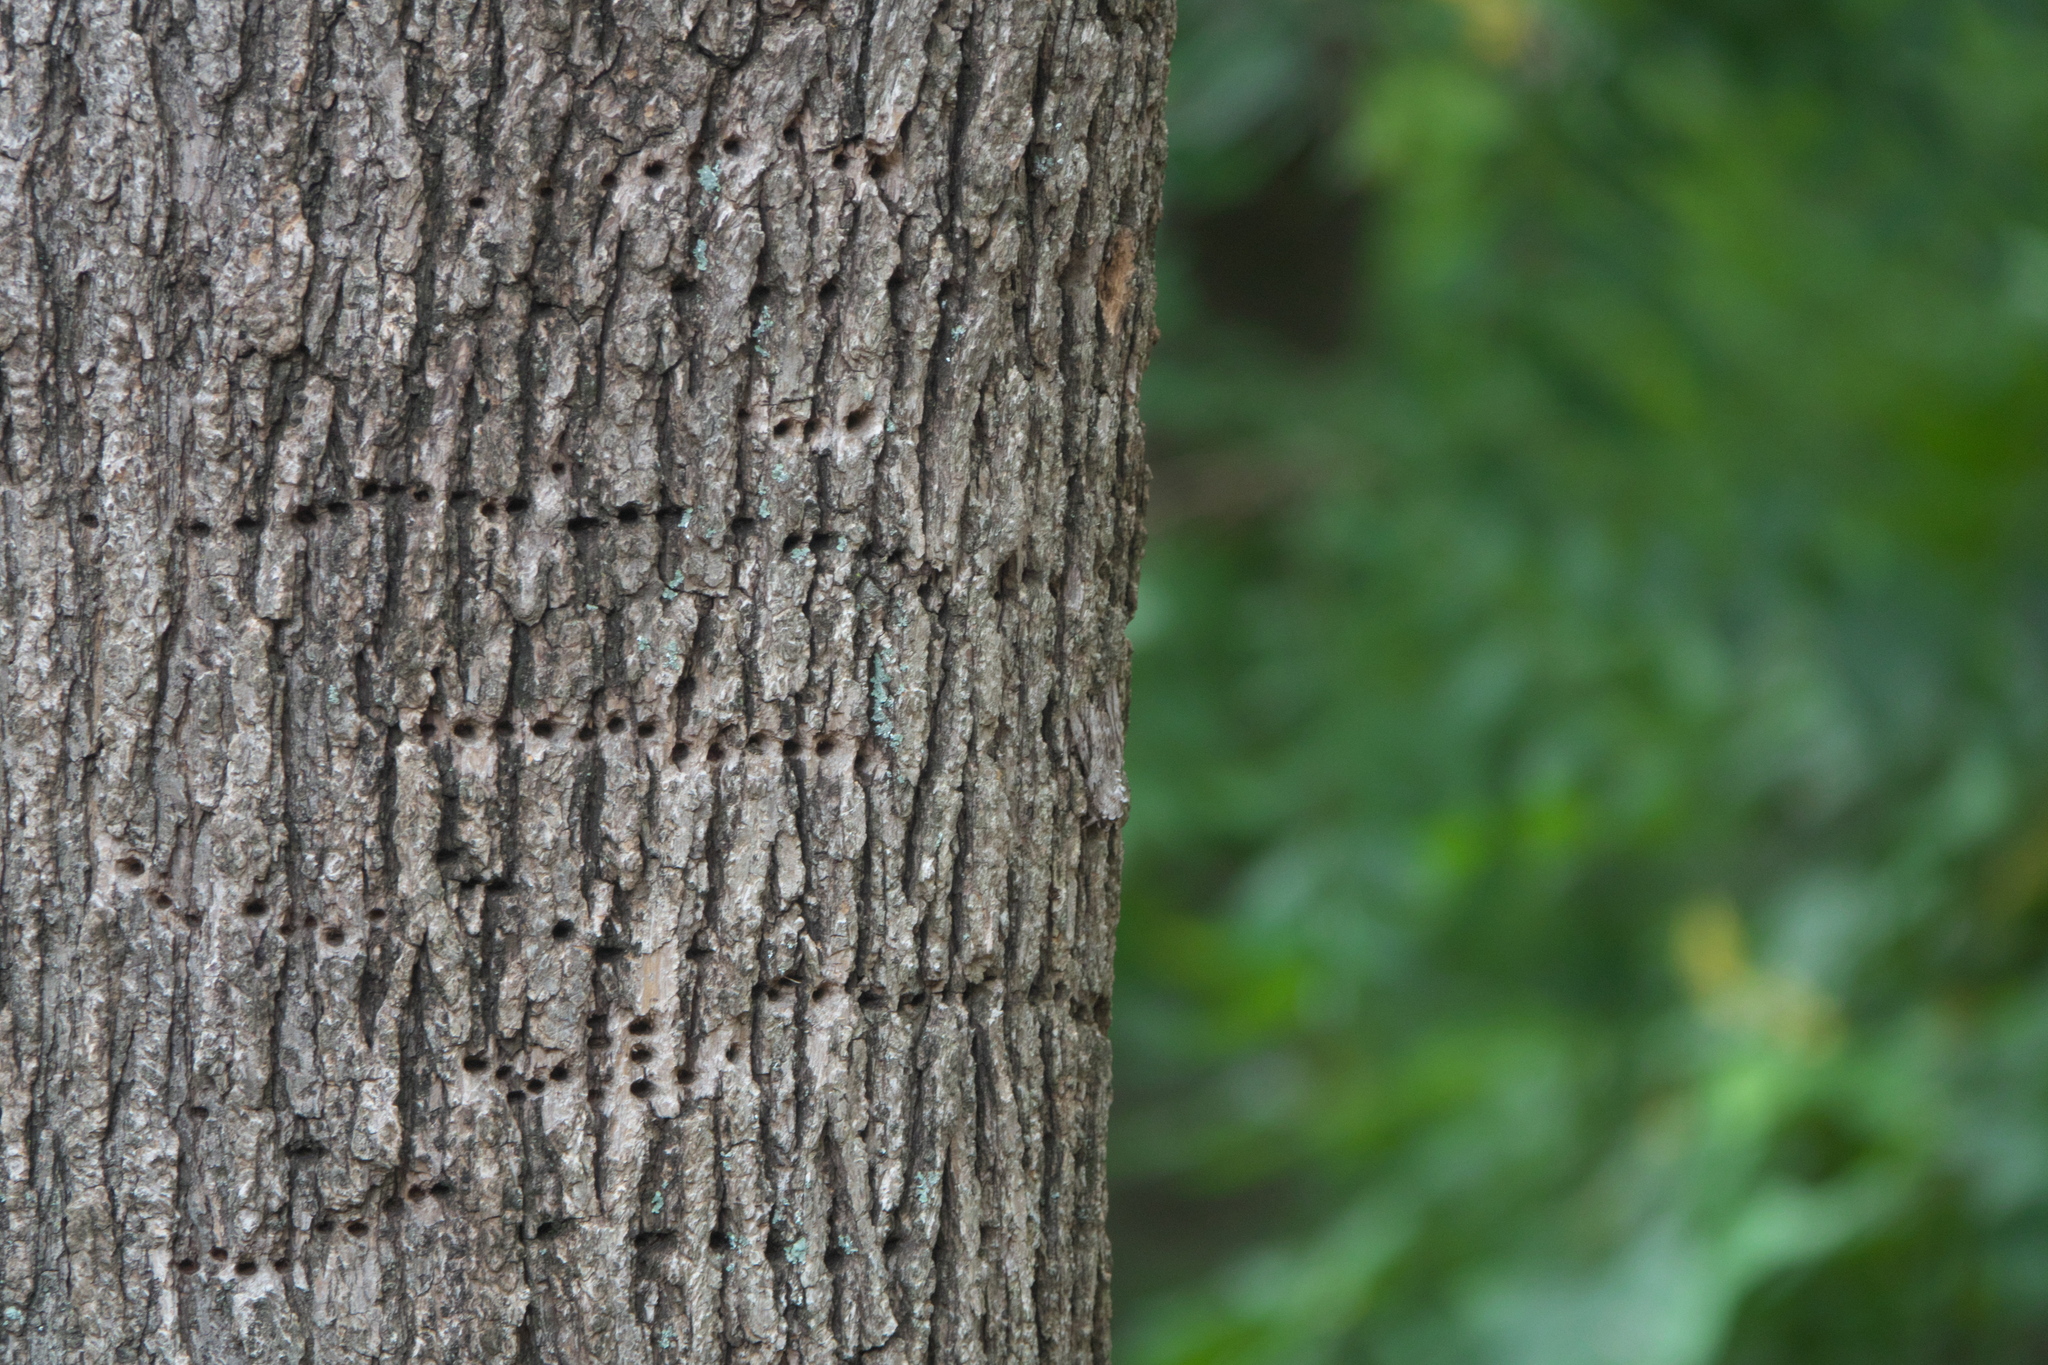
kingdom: Animalia
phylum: Chordata
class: Aves
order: Piciformes
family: Picidae
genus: Sphyrapicus
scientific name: Sphyrapicus varius
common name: Yellow-bellied sapsucker
